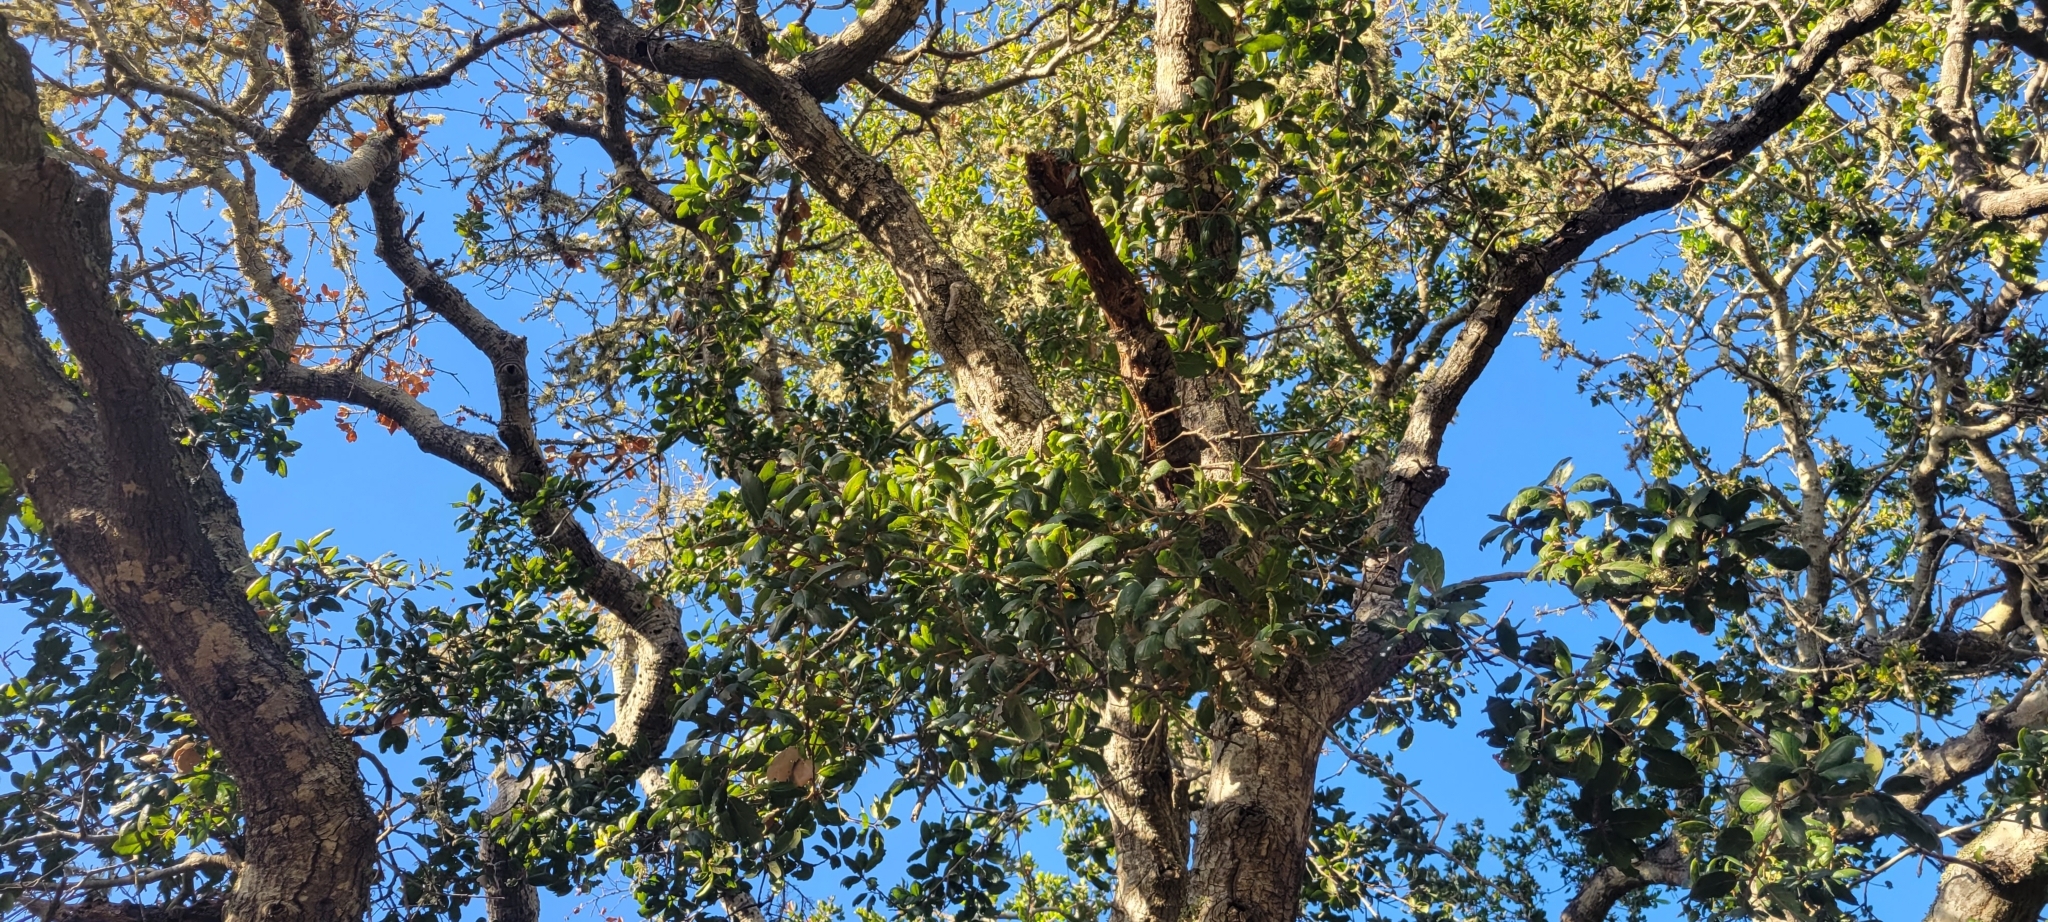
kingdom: Plantae
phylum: Tracheophyta
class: Magnoliopsida
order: Fagales
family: Fagaceae
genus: Quercus
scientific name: Quercus agrifolia
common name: California live oak
